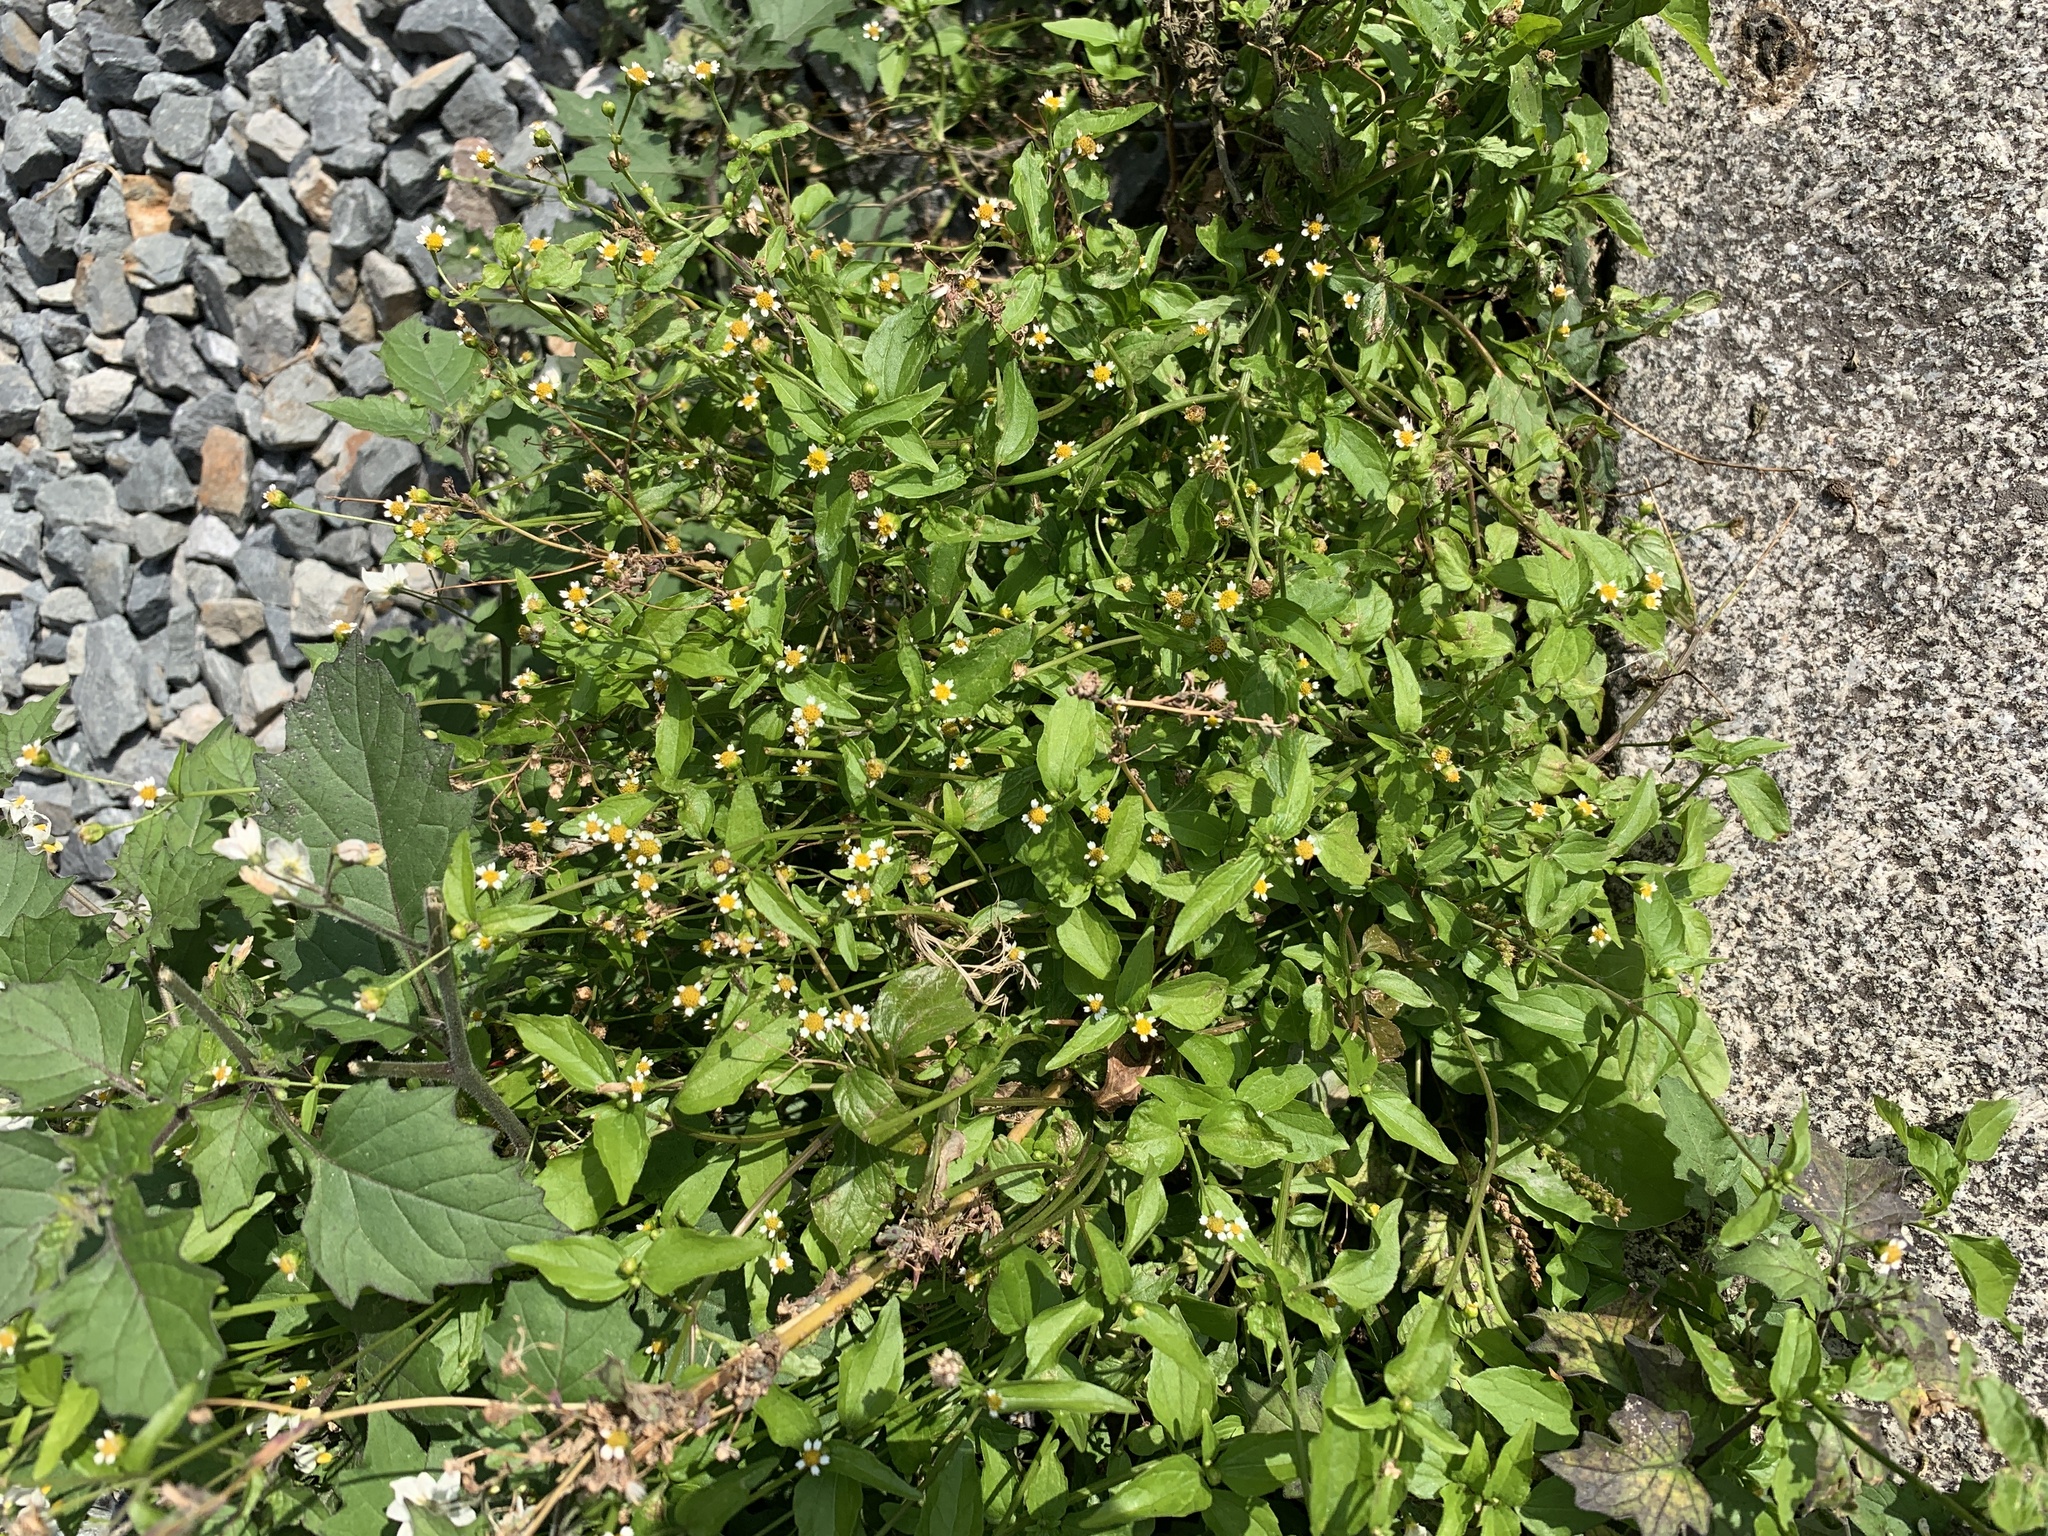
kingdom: Plantae
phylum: Tracheophyta
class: Magnoliopsida
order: Asterales
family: Asteraceae
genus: Galinsoga
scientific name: Galinsoga parviflora
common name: Gallant soldier
